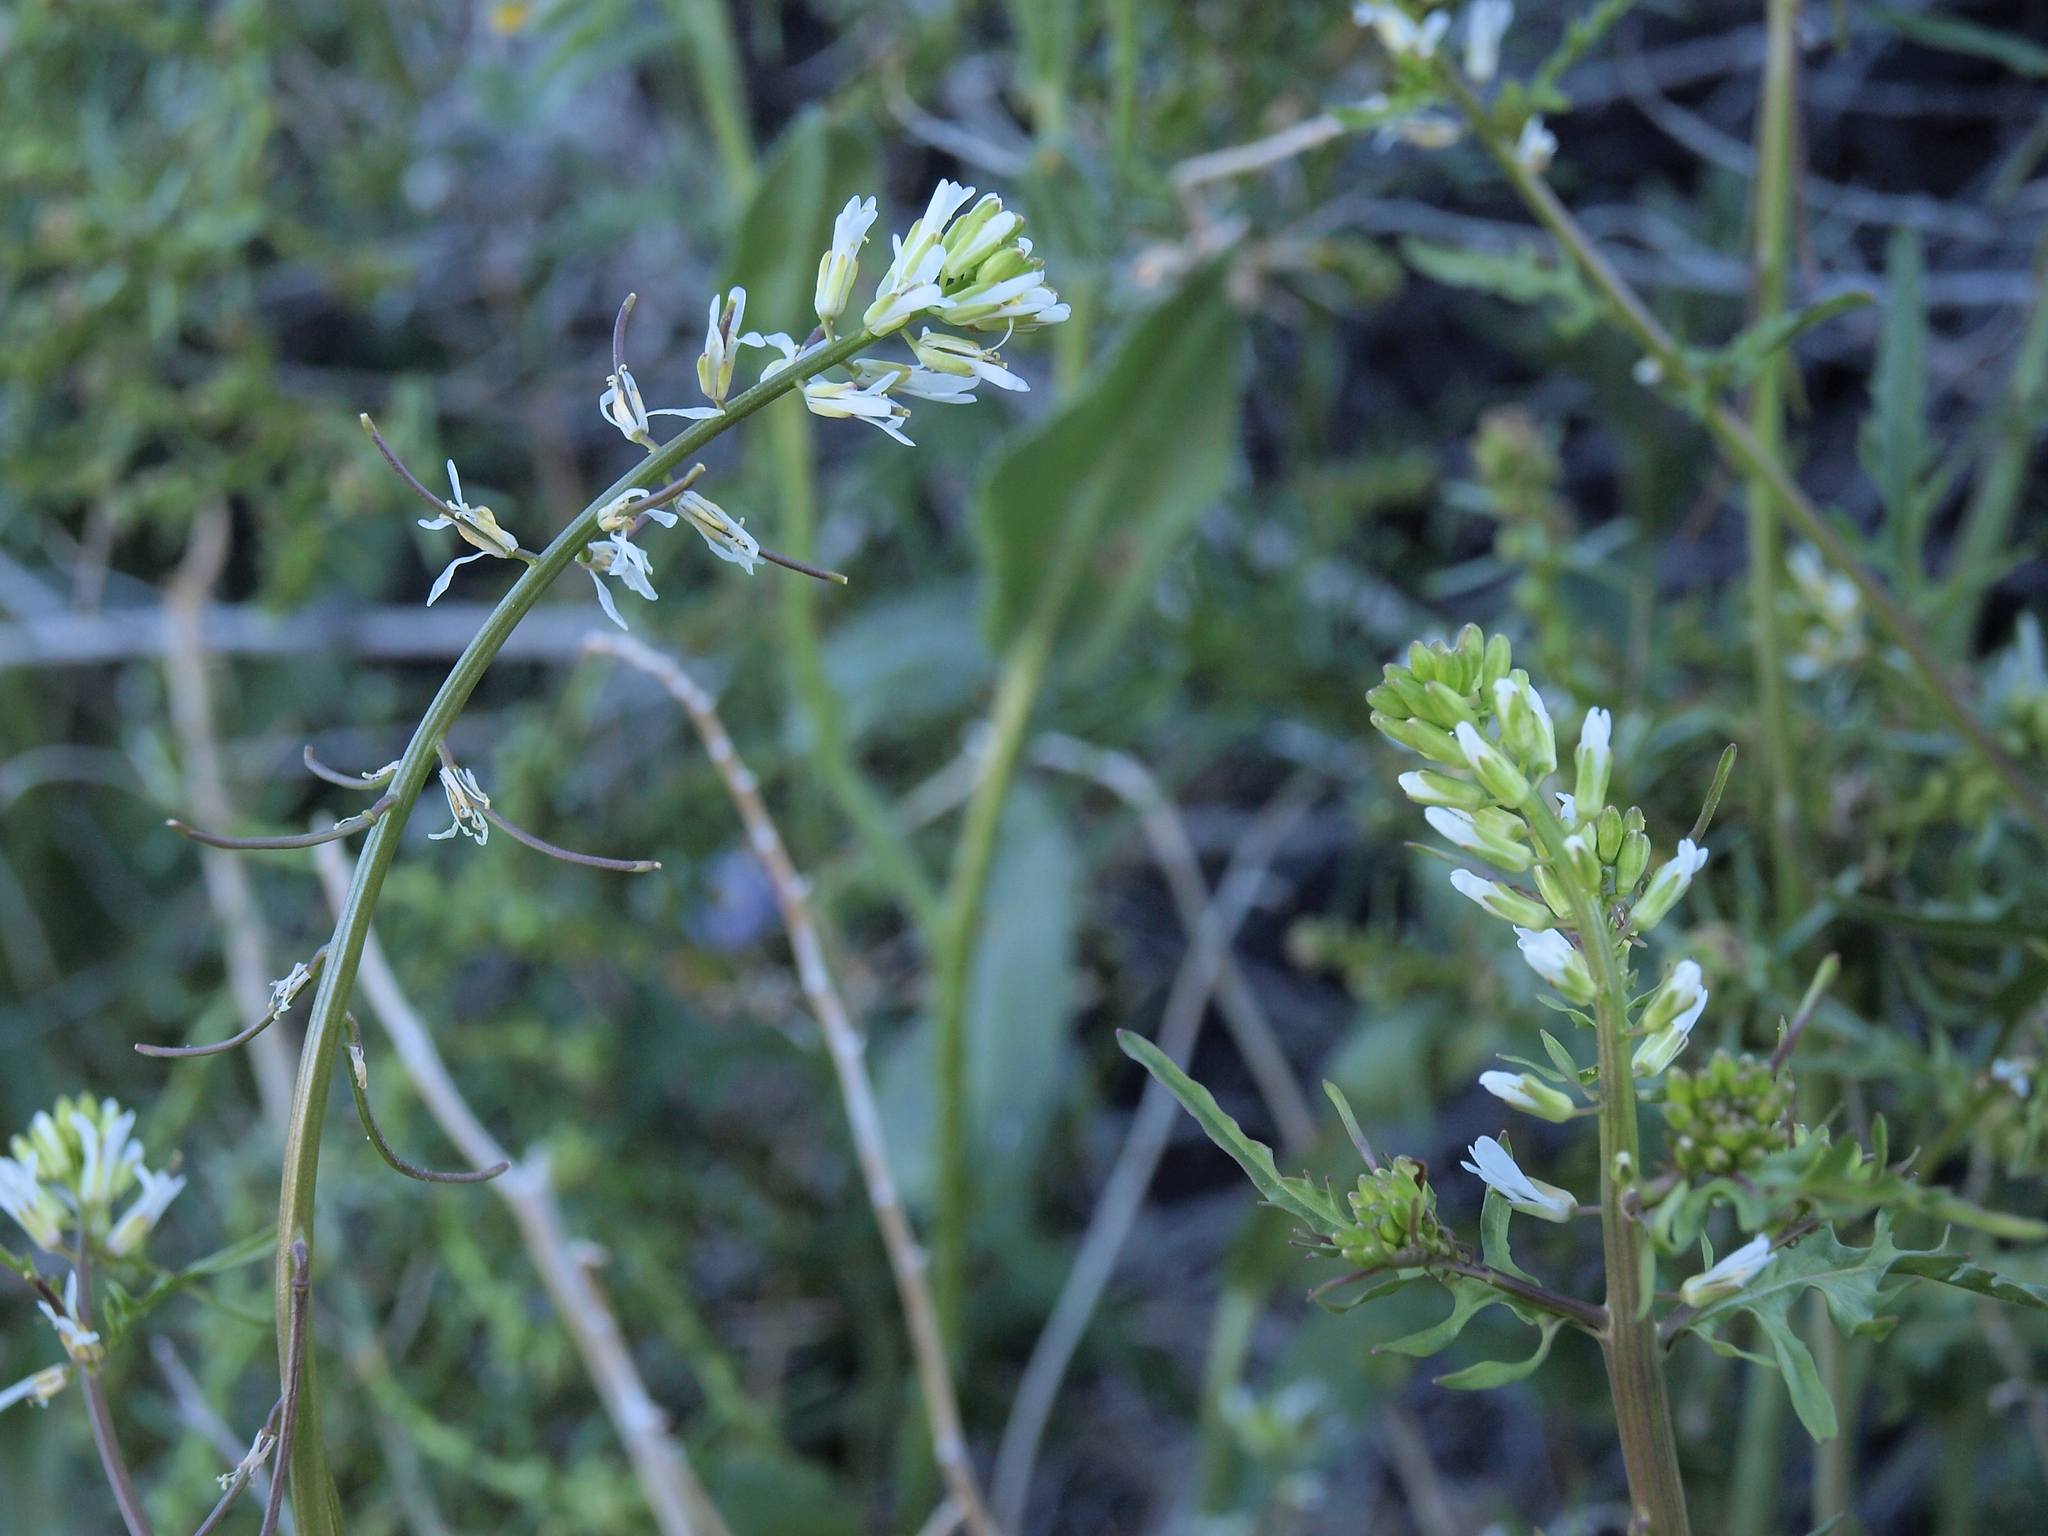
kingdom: Plantae
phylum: Tracheophyta
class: Magnoliopsida
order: Brassicales
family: Brassicaceae
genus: Streptanthus
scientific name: Streptanthus lasiophyllus
